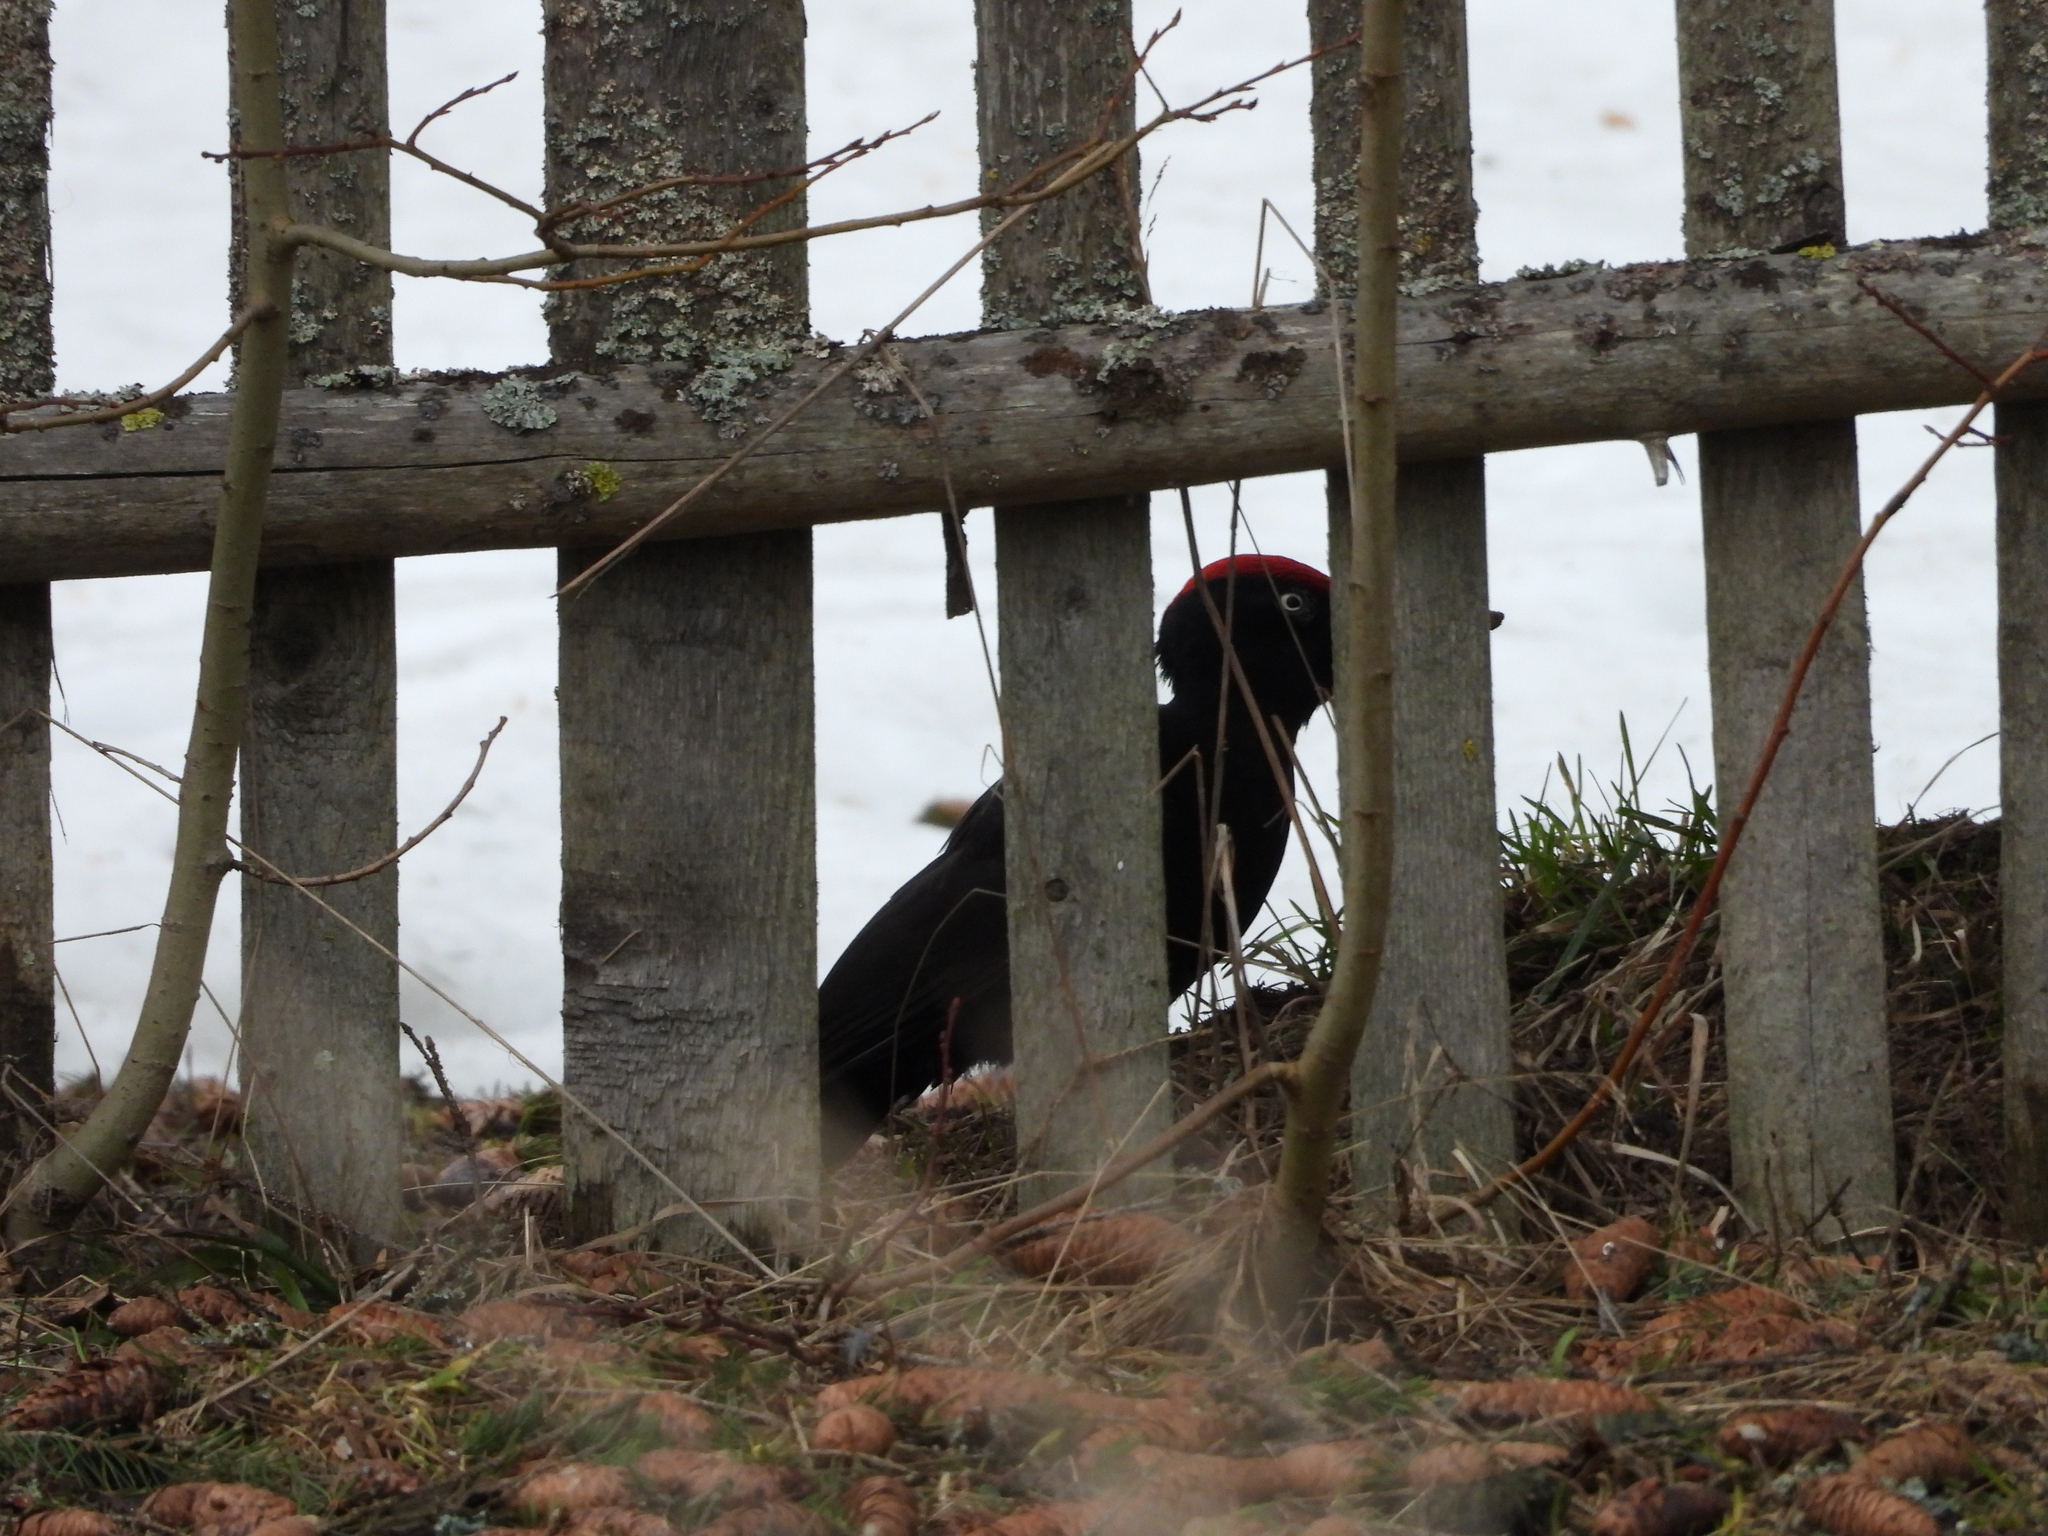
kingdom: Animalia
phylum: Chordata
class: Aves
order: Piciformes
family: Picidae
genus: Dryocopus
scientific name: Dryocopus martius
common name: Black woodpecker
